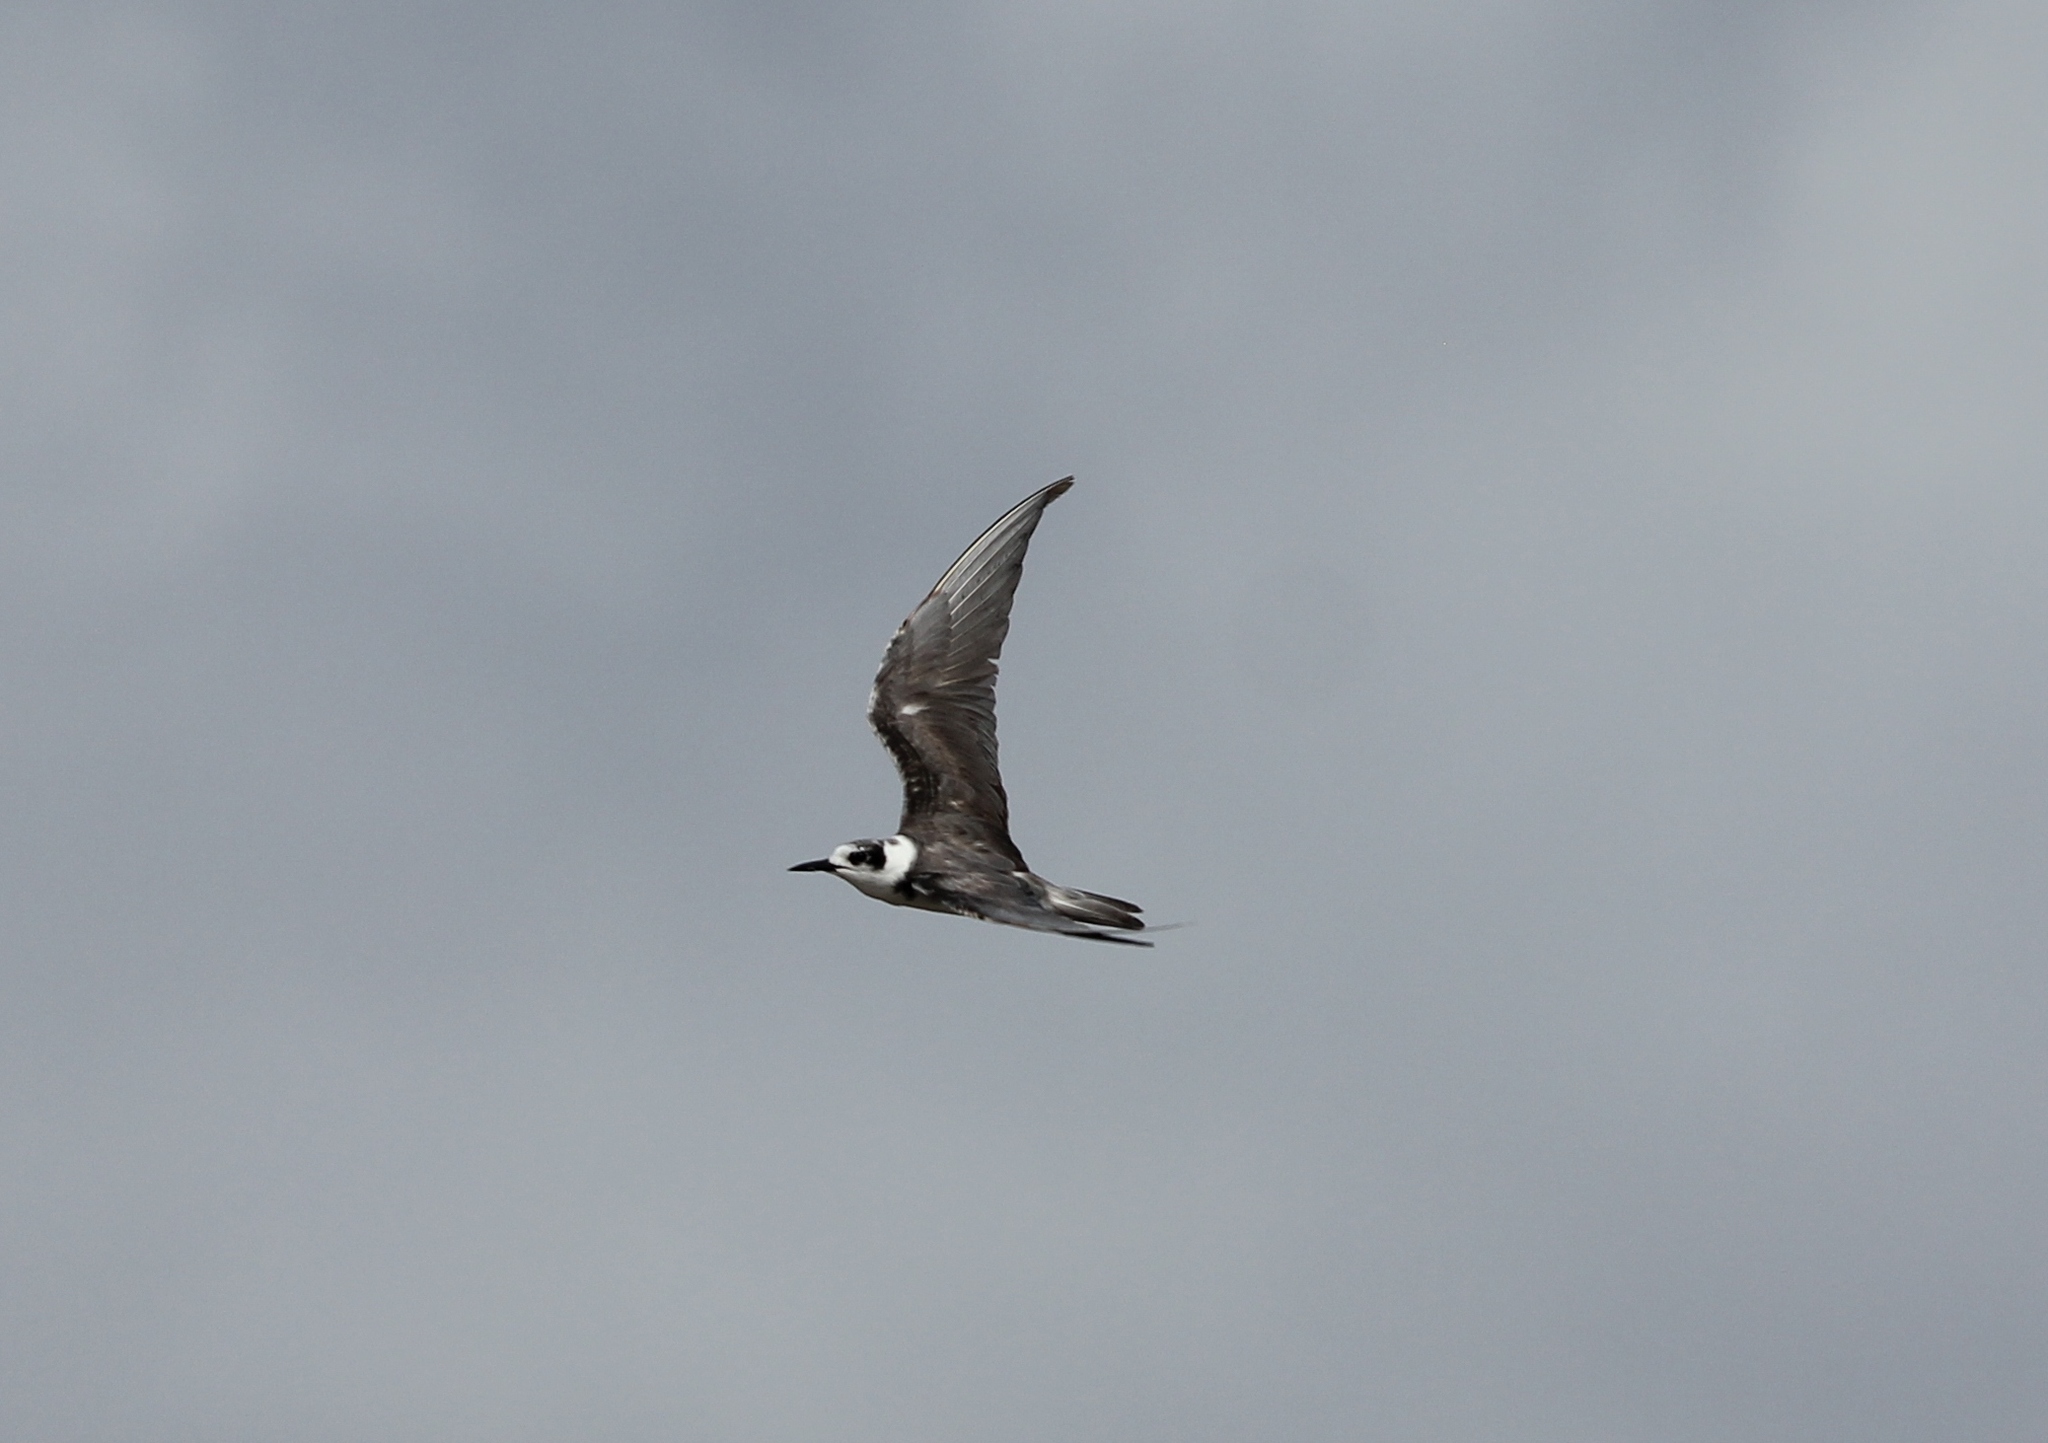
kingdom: Animalia
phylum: Chordata
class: Aves
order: Charadriiformes
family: Laridae
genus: Chlidonias
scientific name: Chlidonias niger
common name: Black tern
